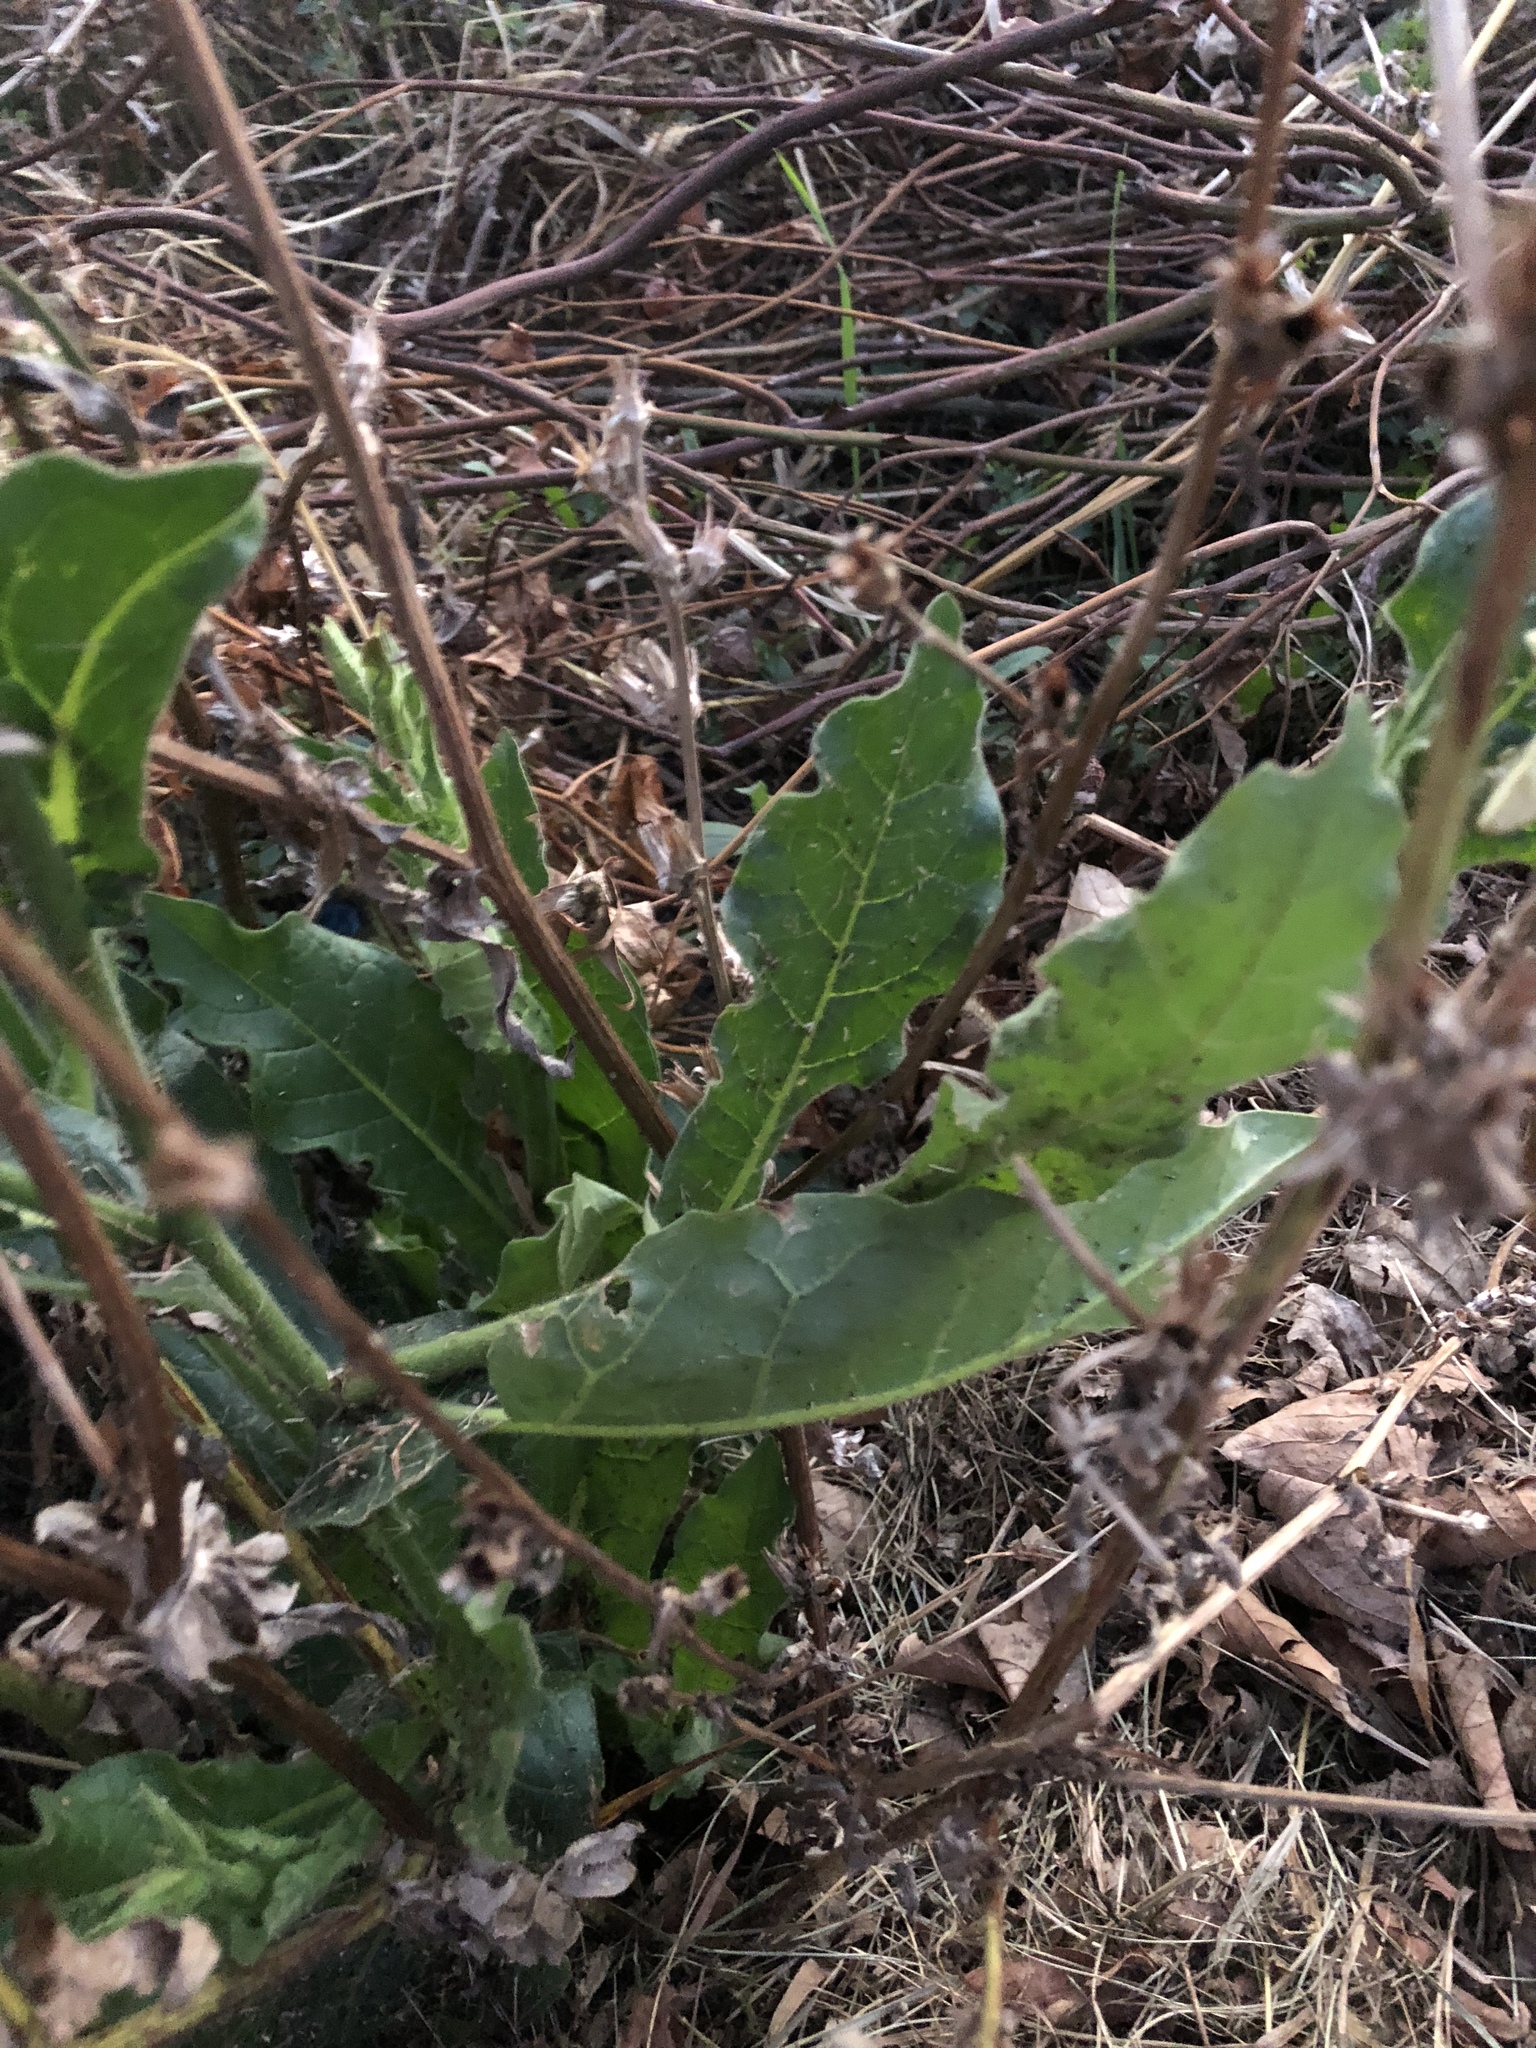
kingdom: Plantae
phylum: Tracheophyta
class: Magnoliopsida
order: Solanales
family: Solanaceae
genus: Nicotiana
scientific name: Nicotiana alata
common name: Jasmine tobacco
